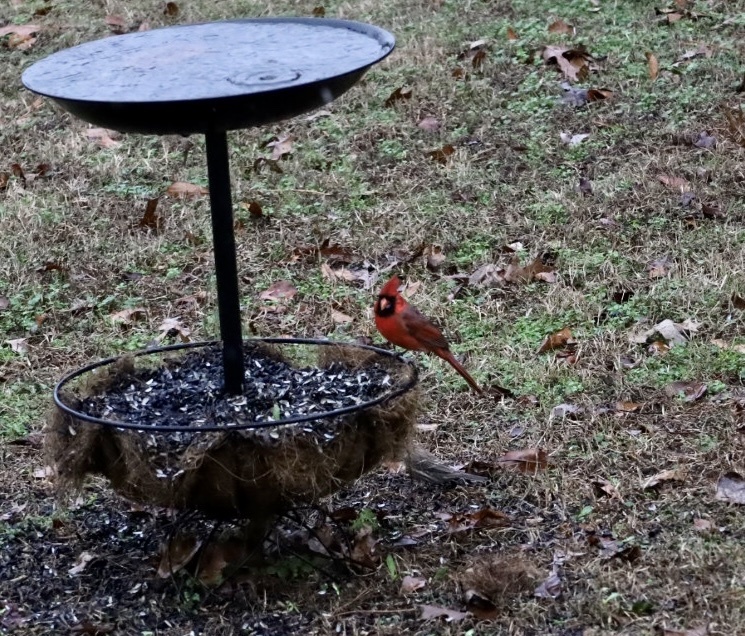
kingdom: Animalia
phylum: Chordata
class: Aves
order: Passeriformes
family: Cardinalidae
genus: Cardinalis
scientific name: Cardinalis cardinalis
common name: Northern cardinal
